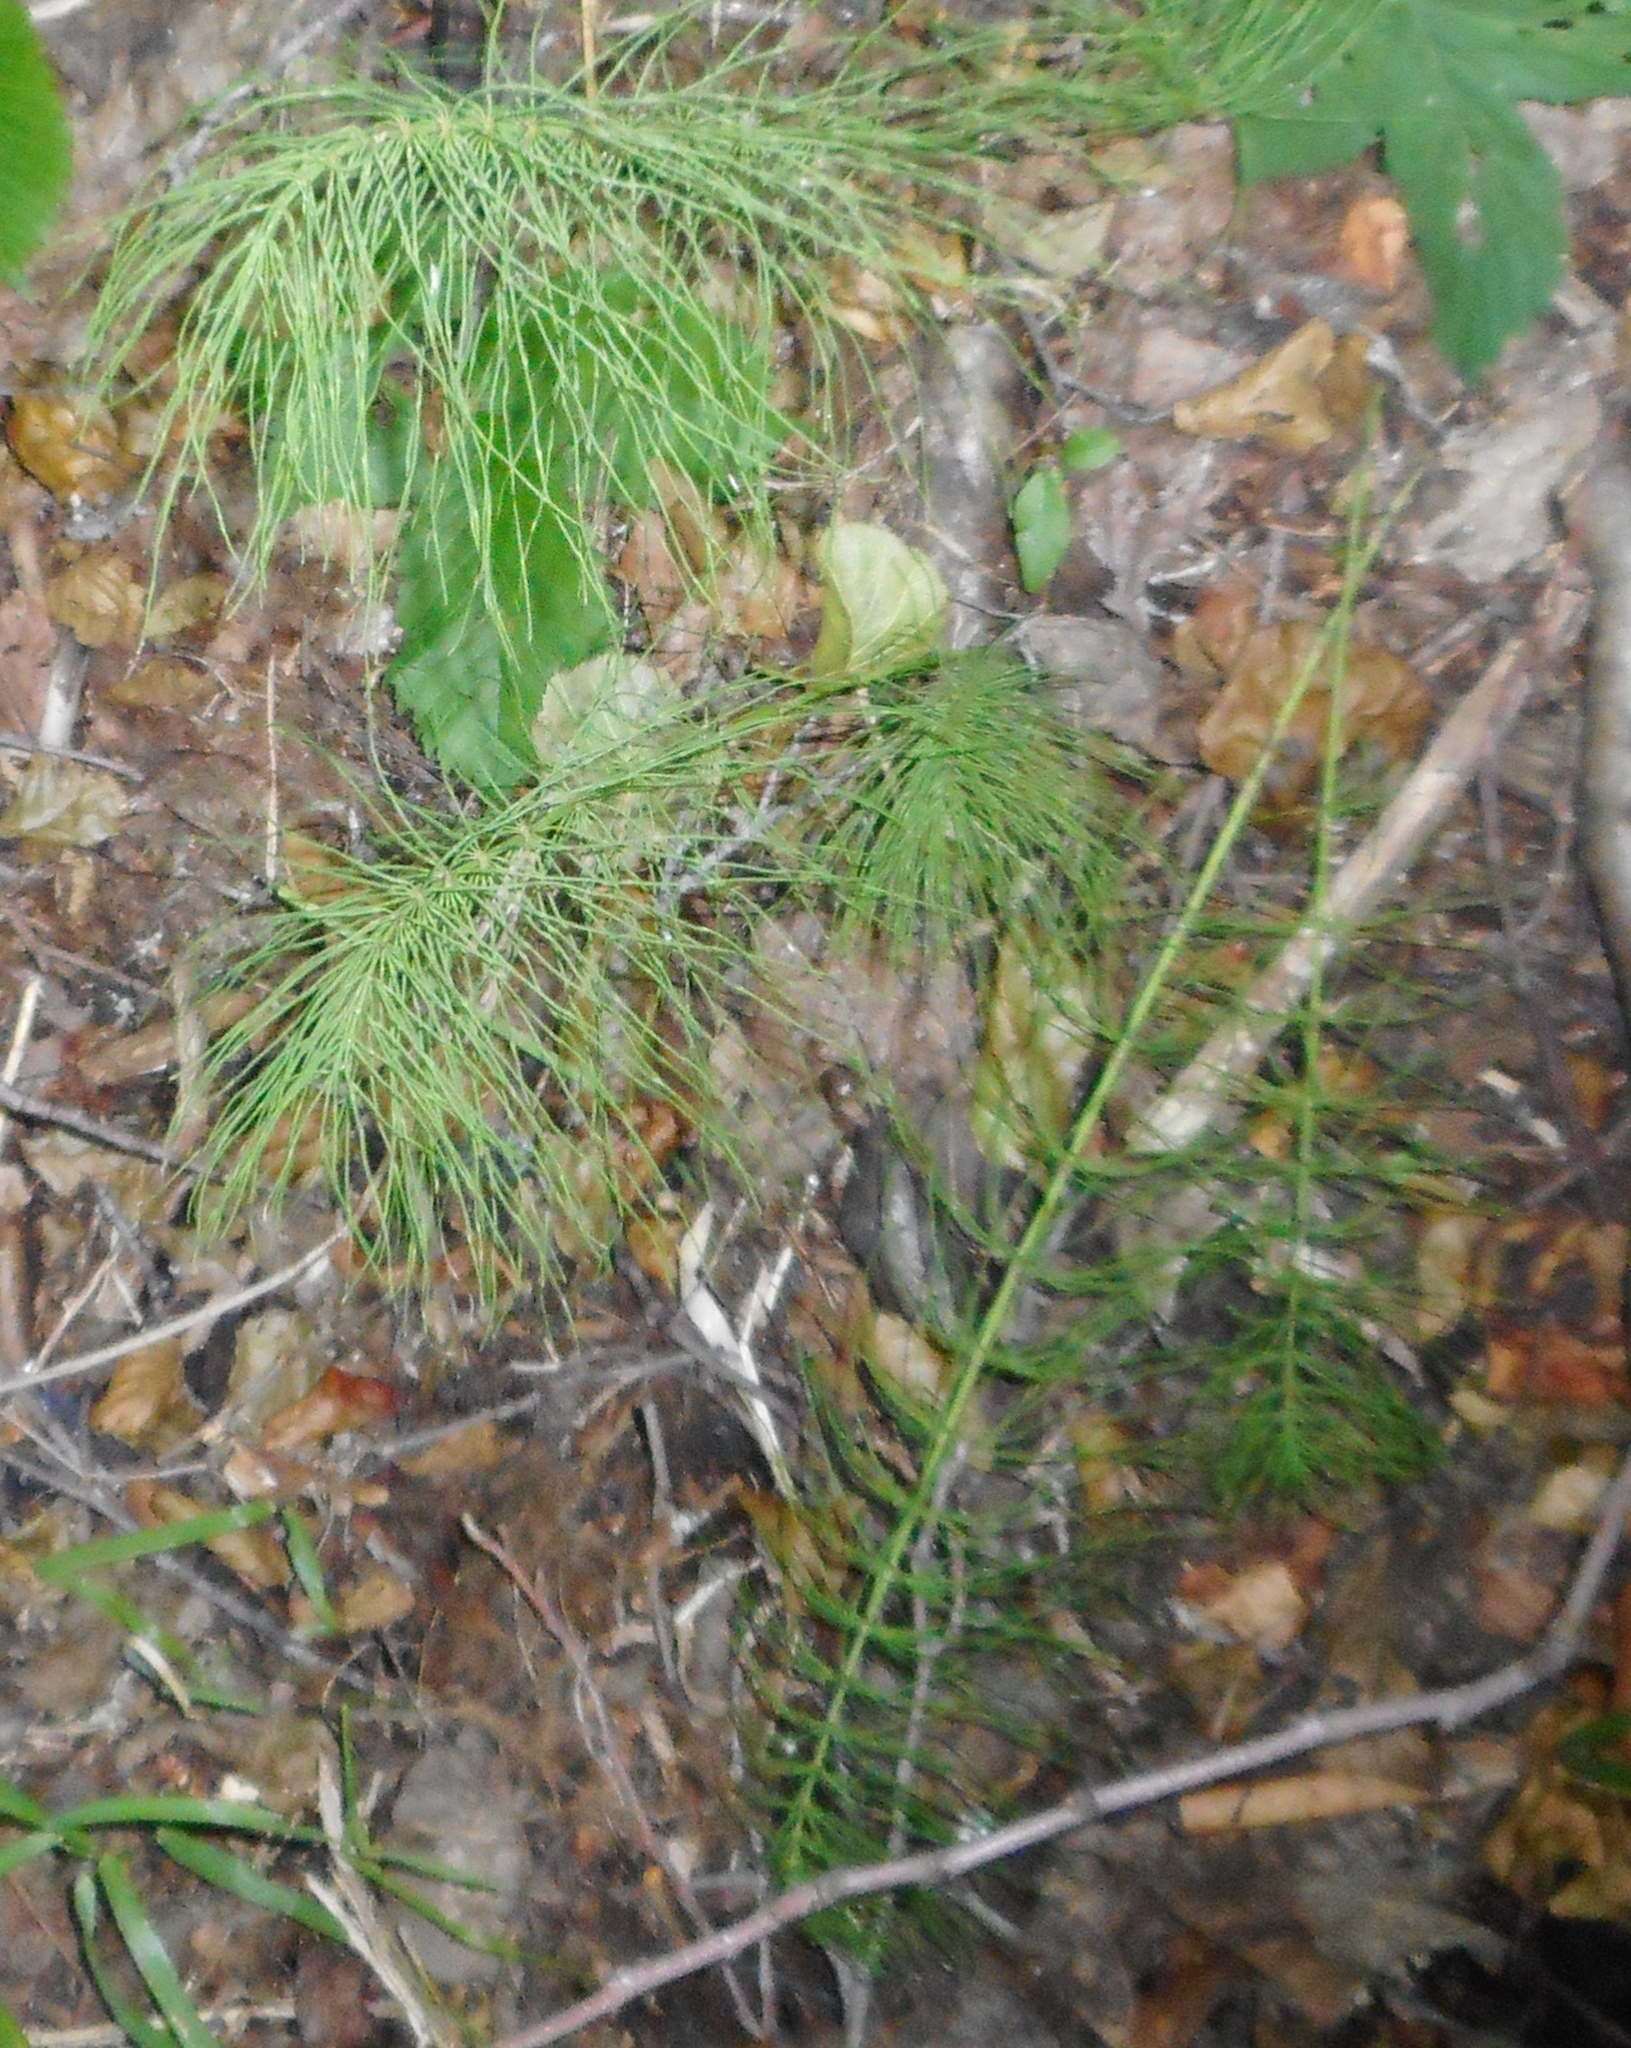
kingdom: Plantae
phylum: Tracheophyta
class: Polypodiopsida
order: Equisetales
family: Equisetaceae
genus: Equisetum
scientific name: Equisetum pratense
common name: Meadow horsetail
